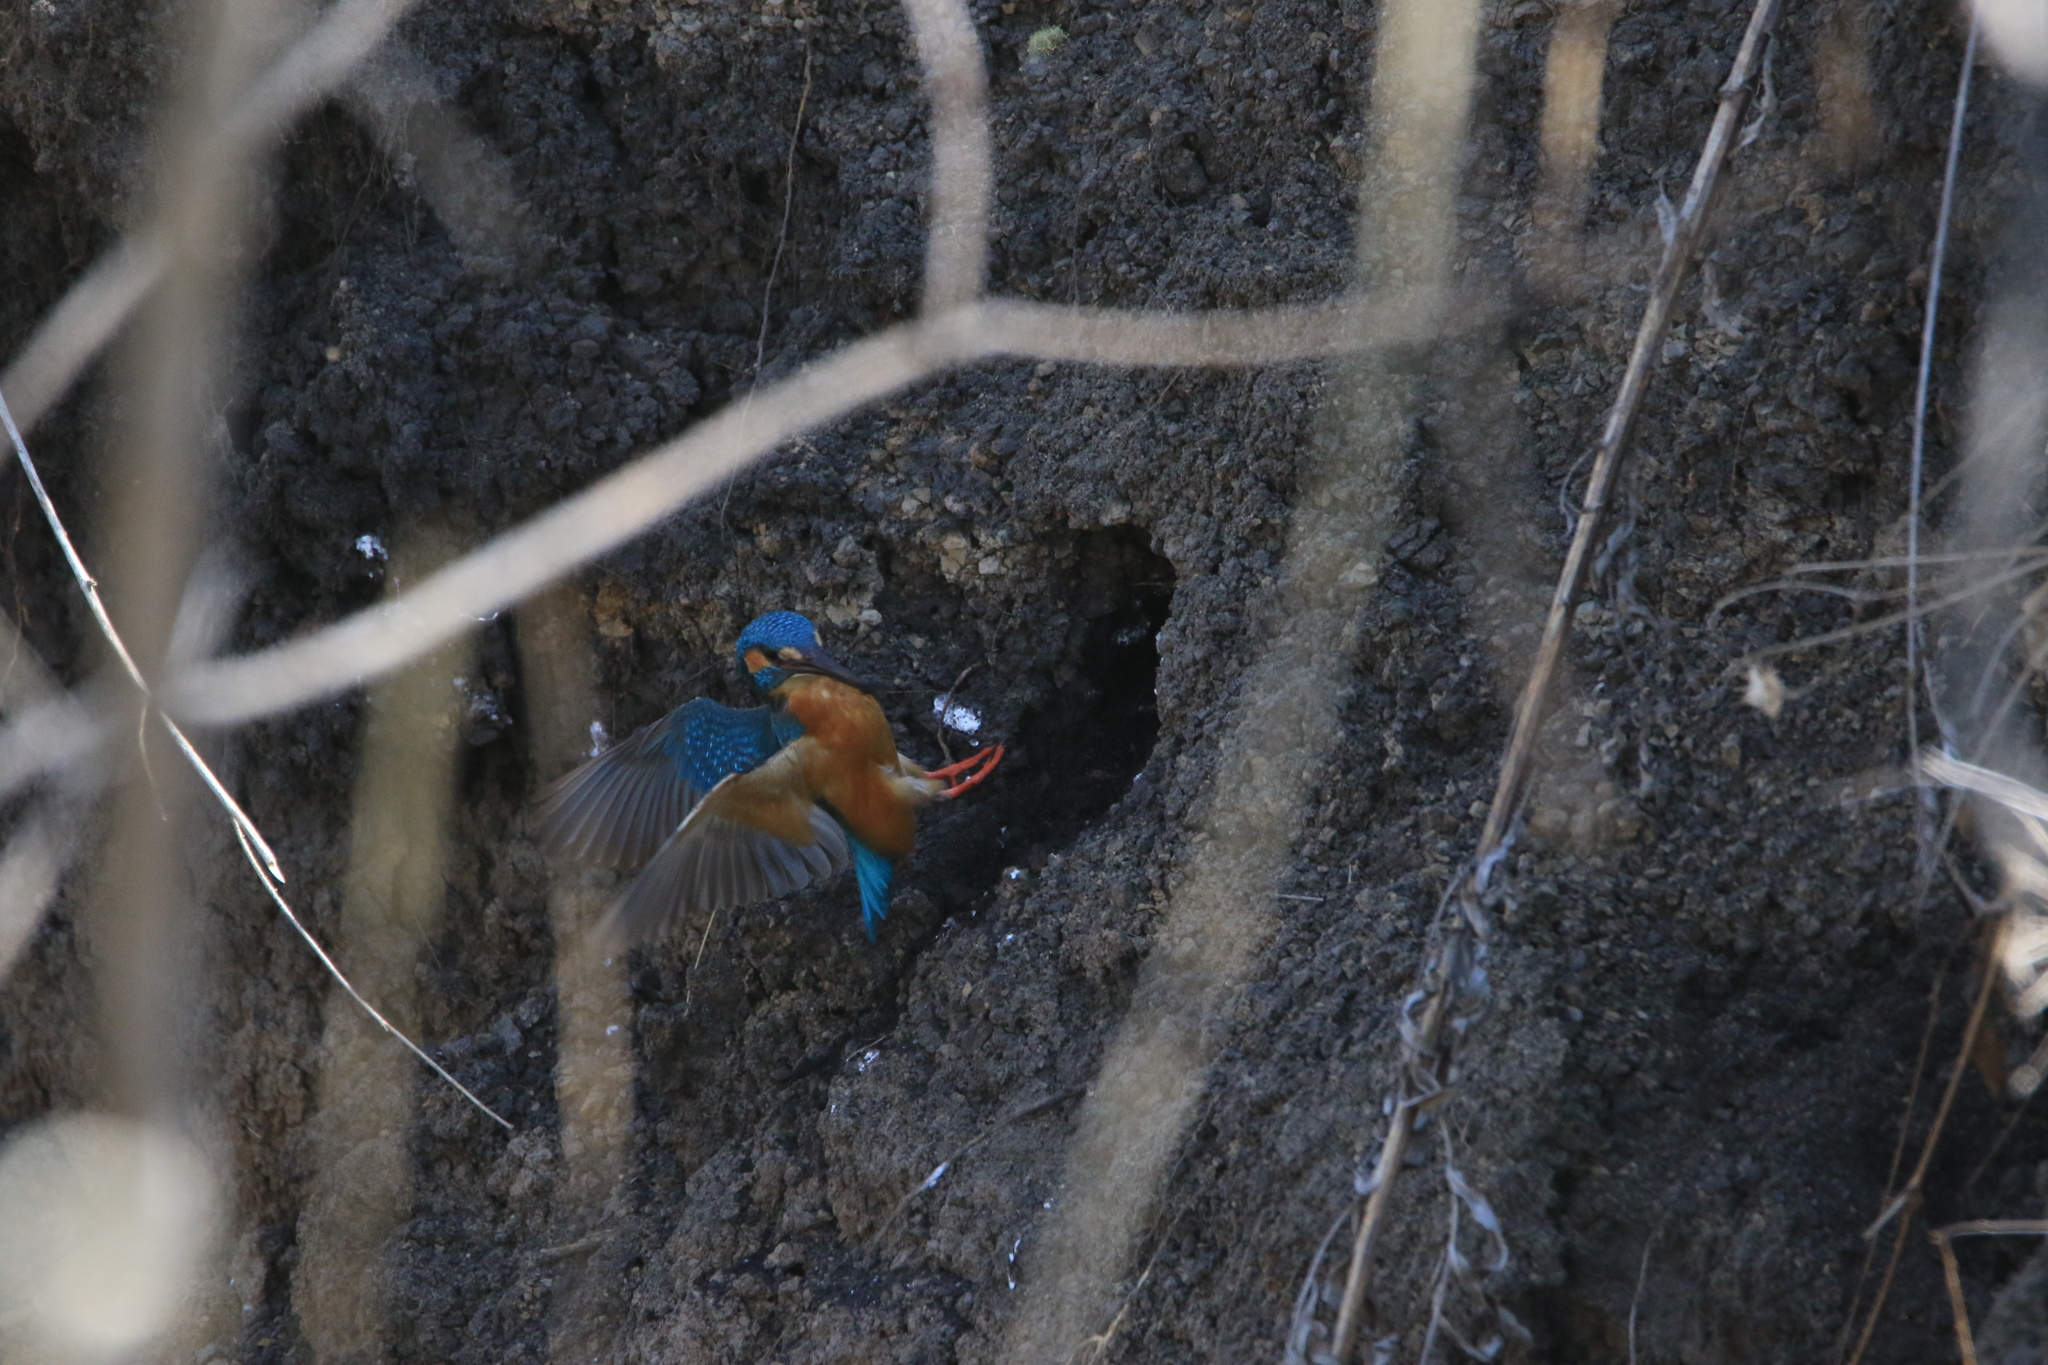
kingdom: Animalia
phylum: Chordata
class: Aves
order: Coraciiformes
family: Alcedinidae
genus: Alcedo
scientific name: Alcedo atthis
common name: Common kingfisher
